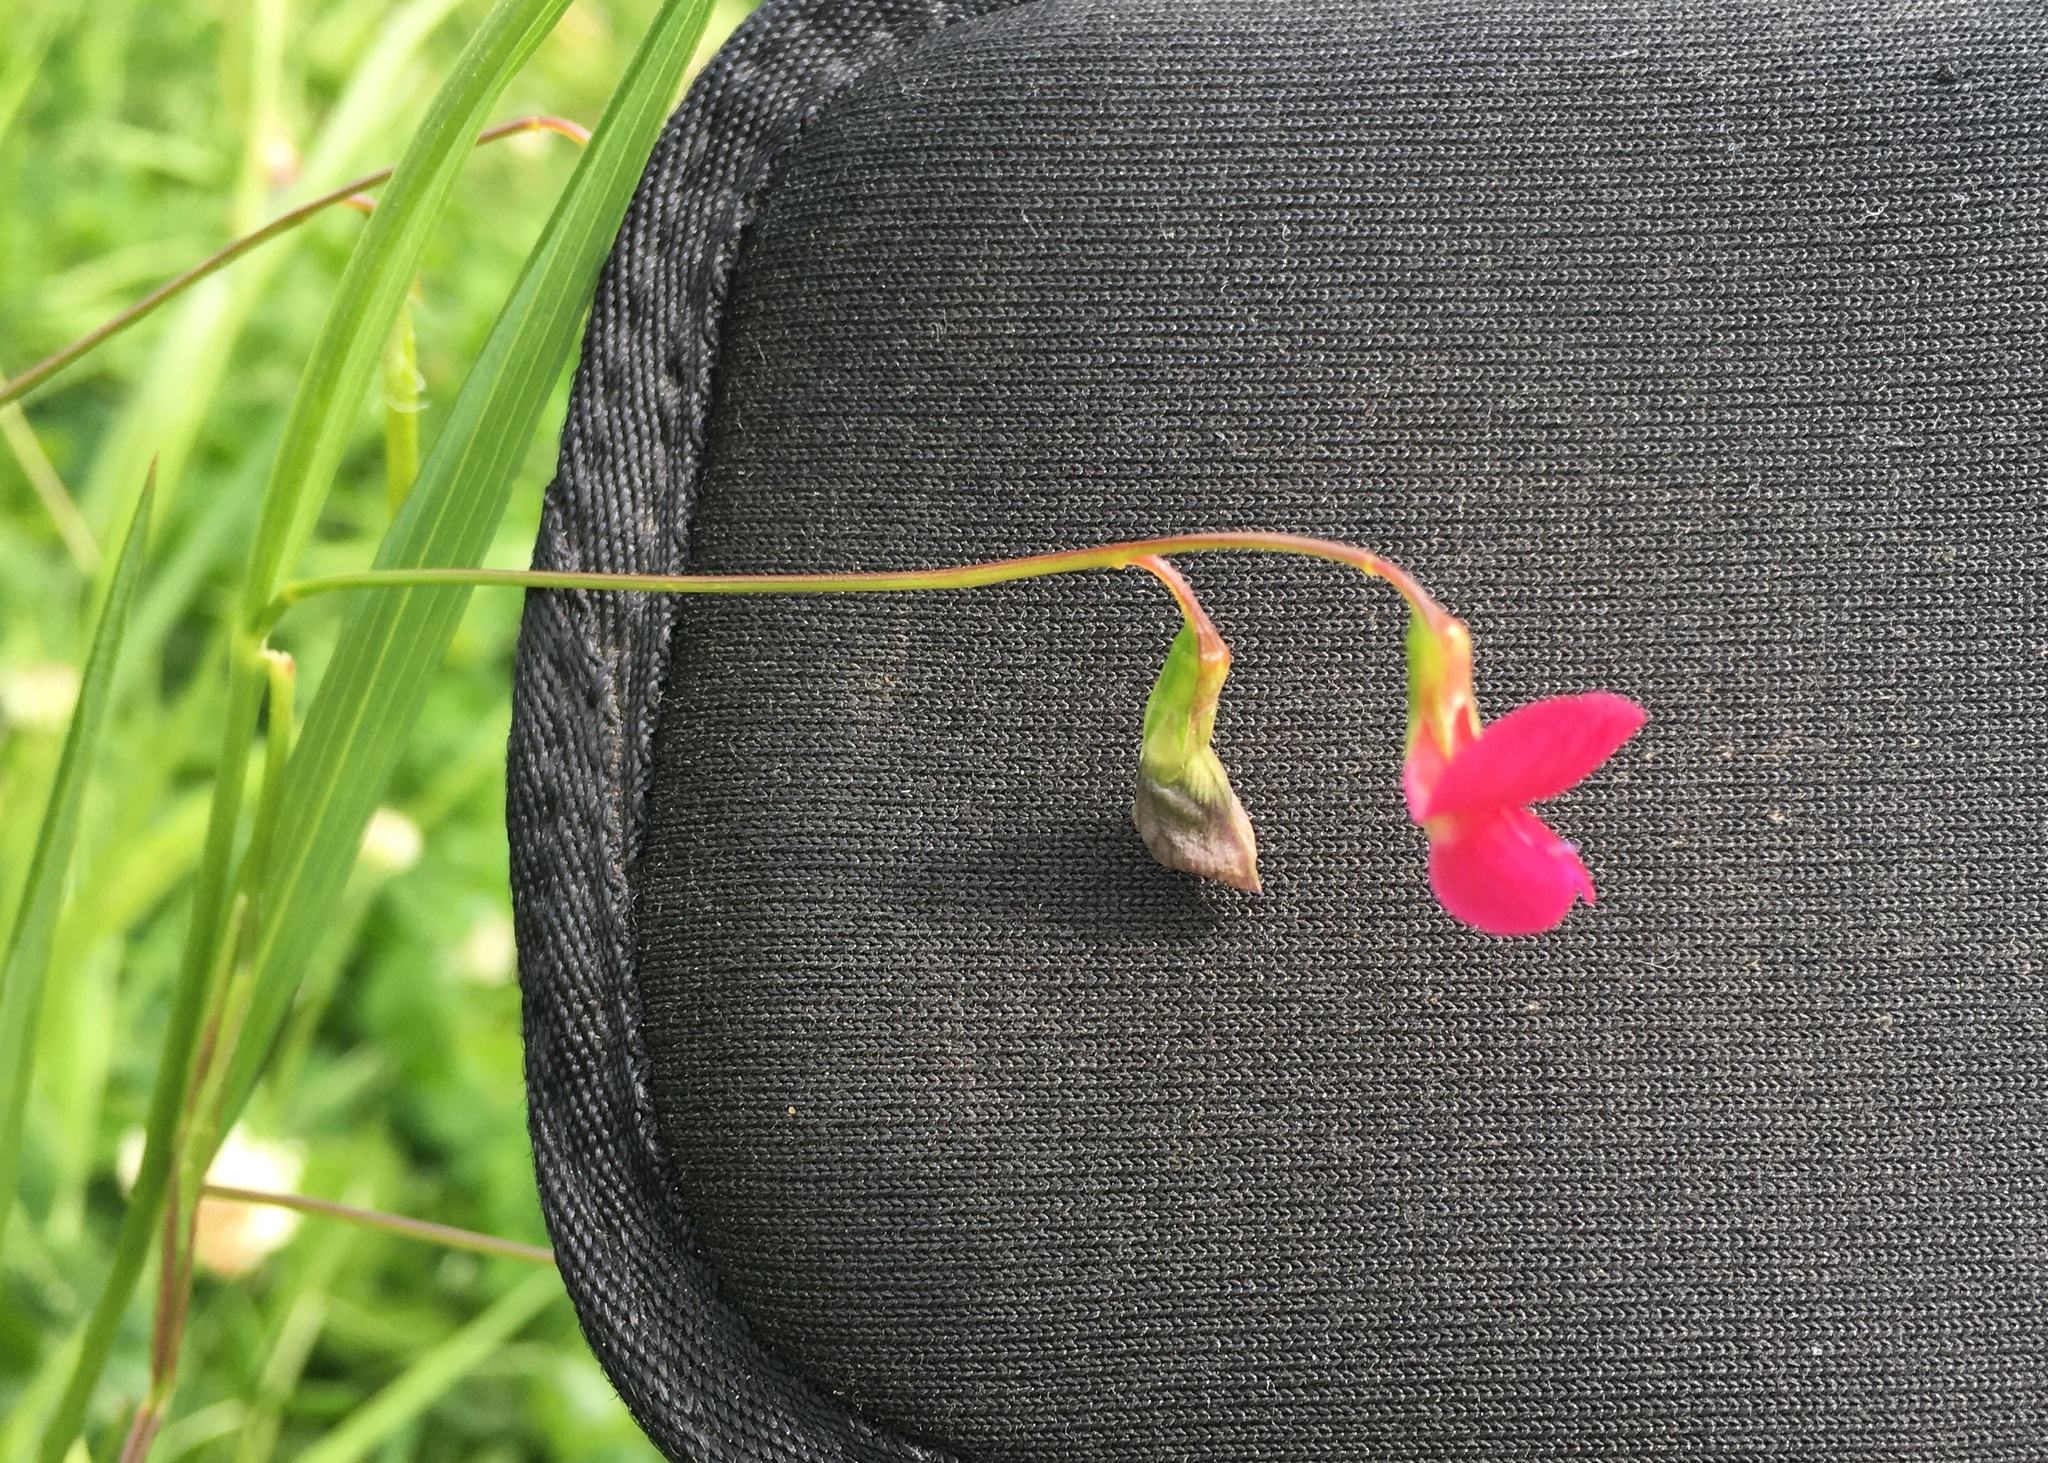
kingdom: Plantae
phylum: Tracheophyta
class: Magnoliopsida
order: Fabales
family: Fabaceae
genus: Lathyrus
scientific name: Lathyrus nissolia
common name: Grass vetchling
